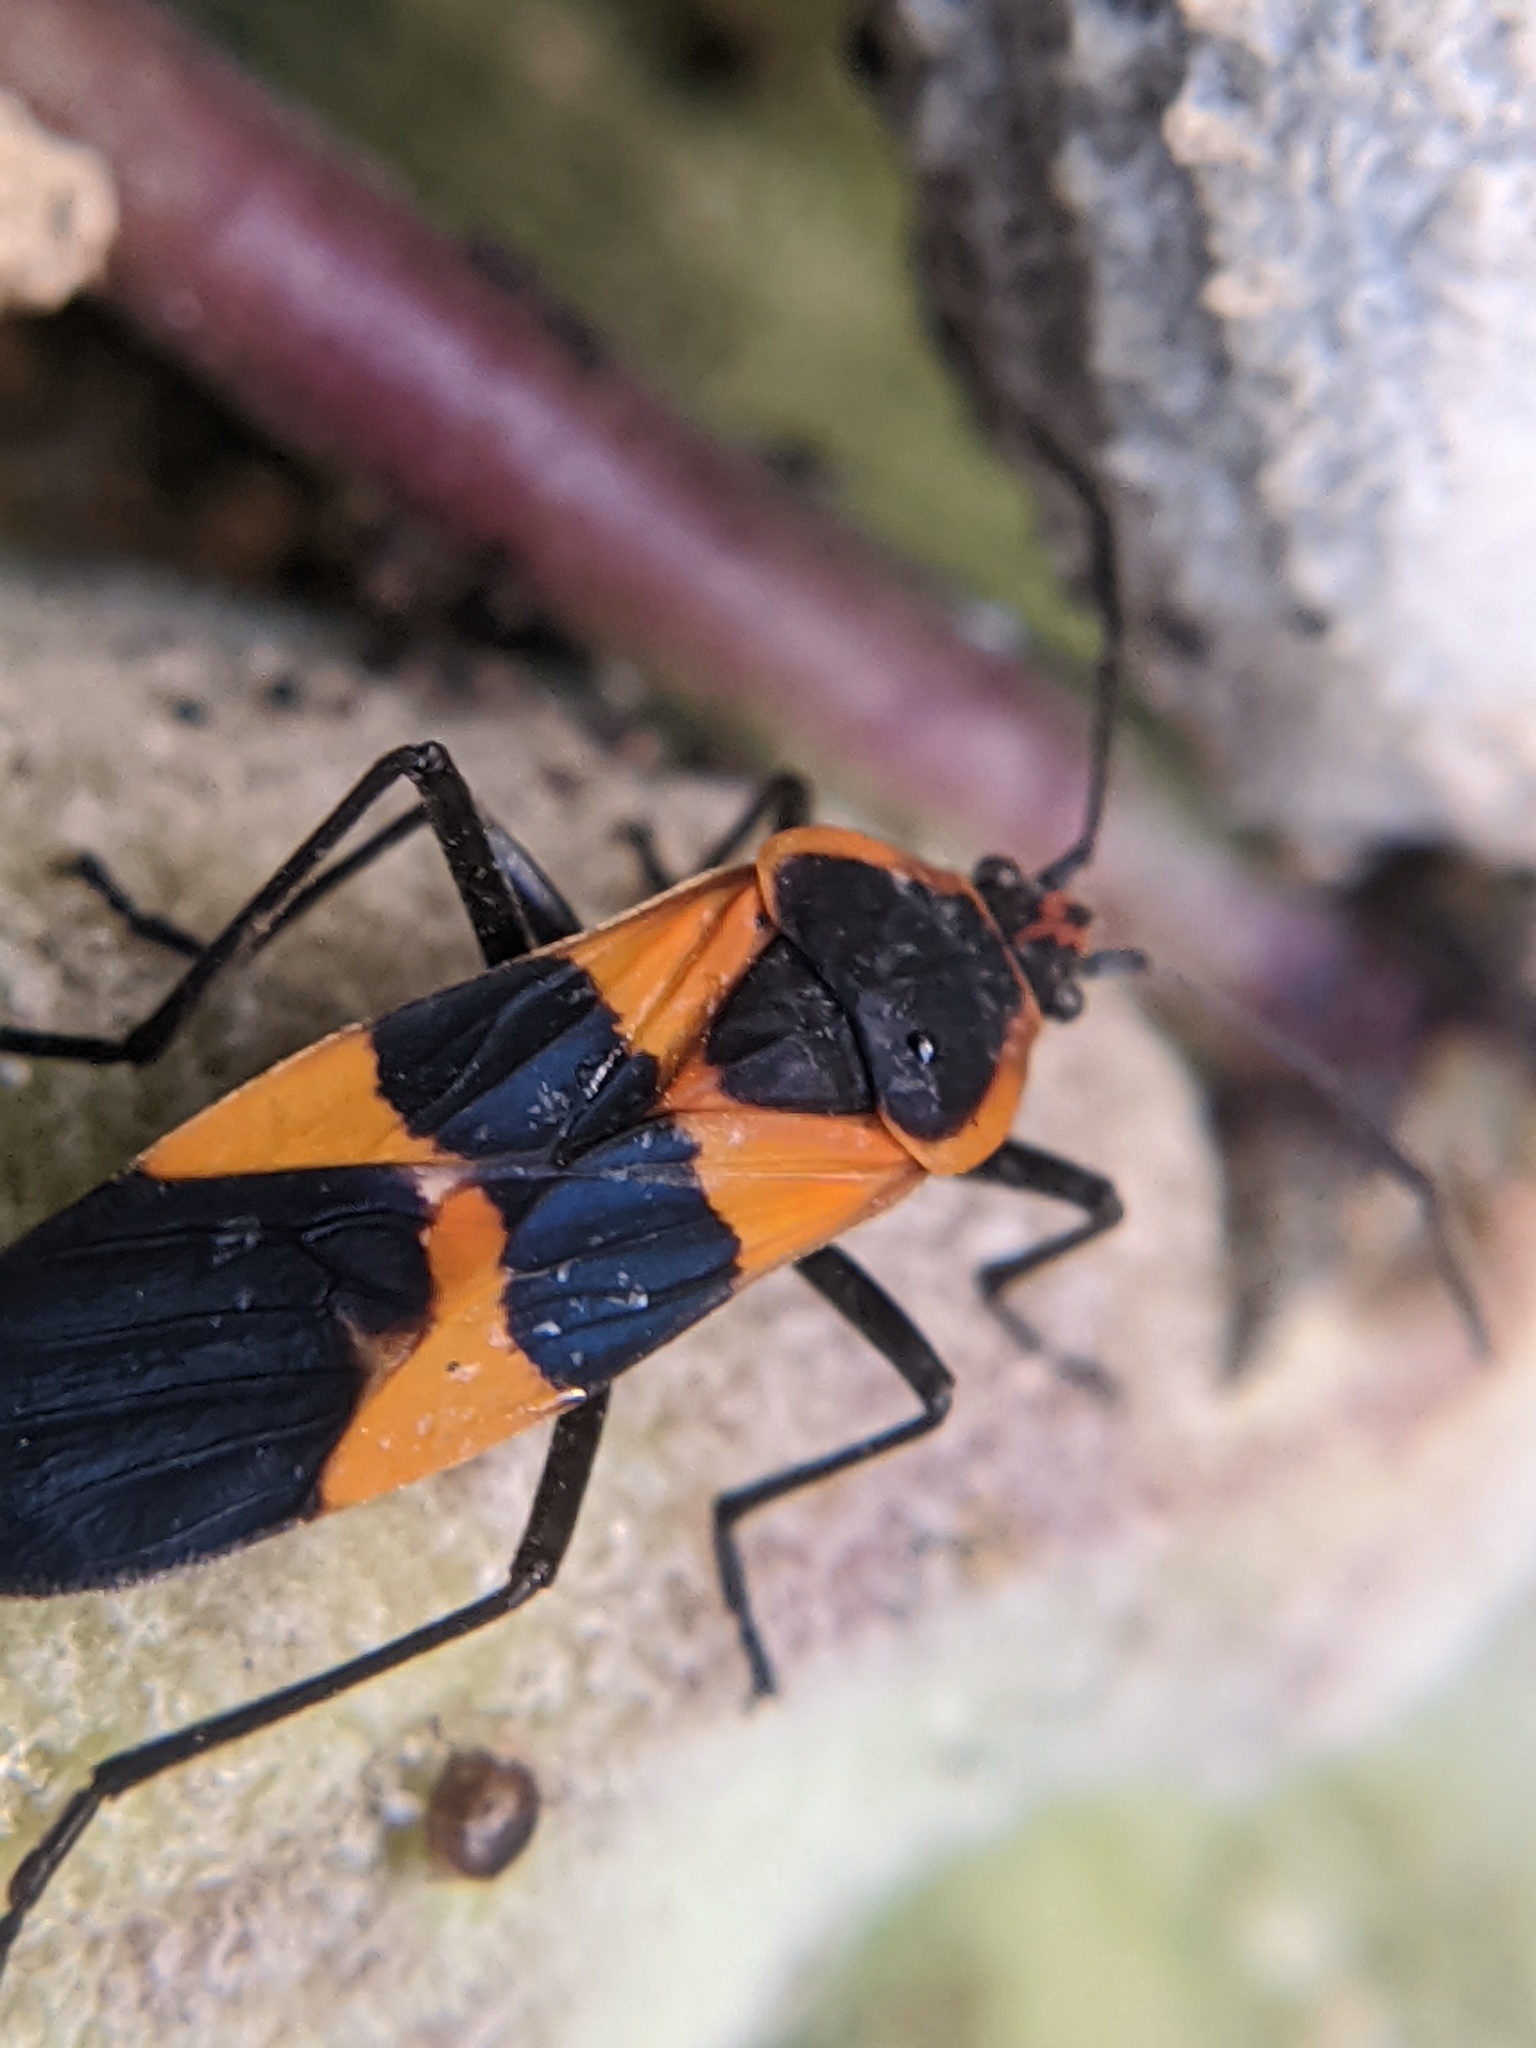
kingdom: Animalia
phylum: Arthropoda
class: Insecta
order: Hemiptera
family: Lygaeidae
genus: Oncopeltus
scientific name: Oncopeltus fasciatus
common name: Large milkweed bug
